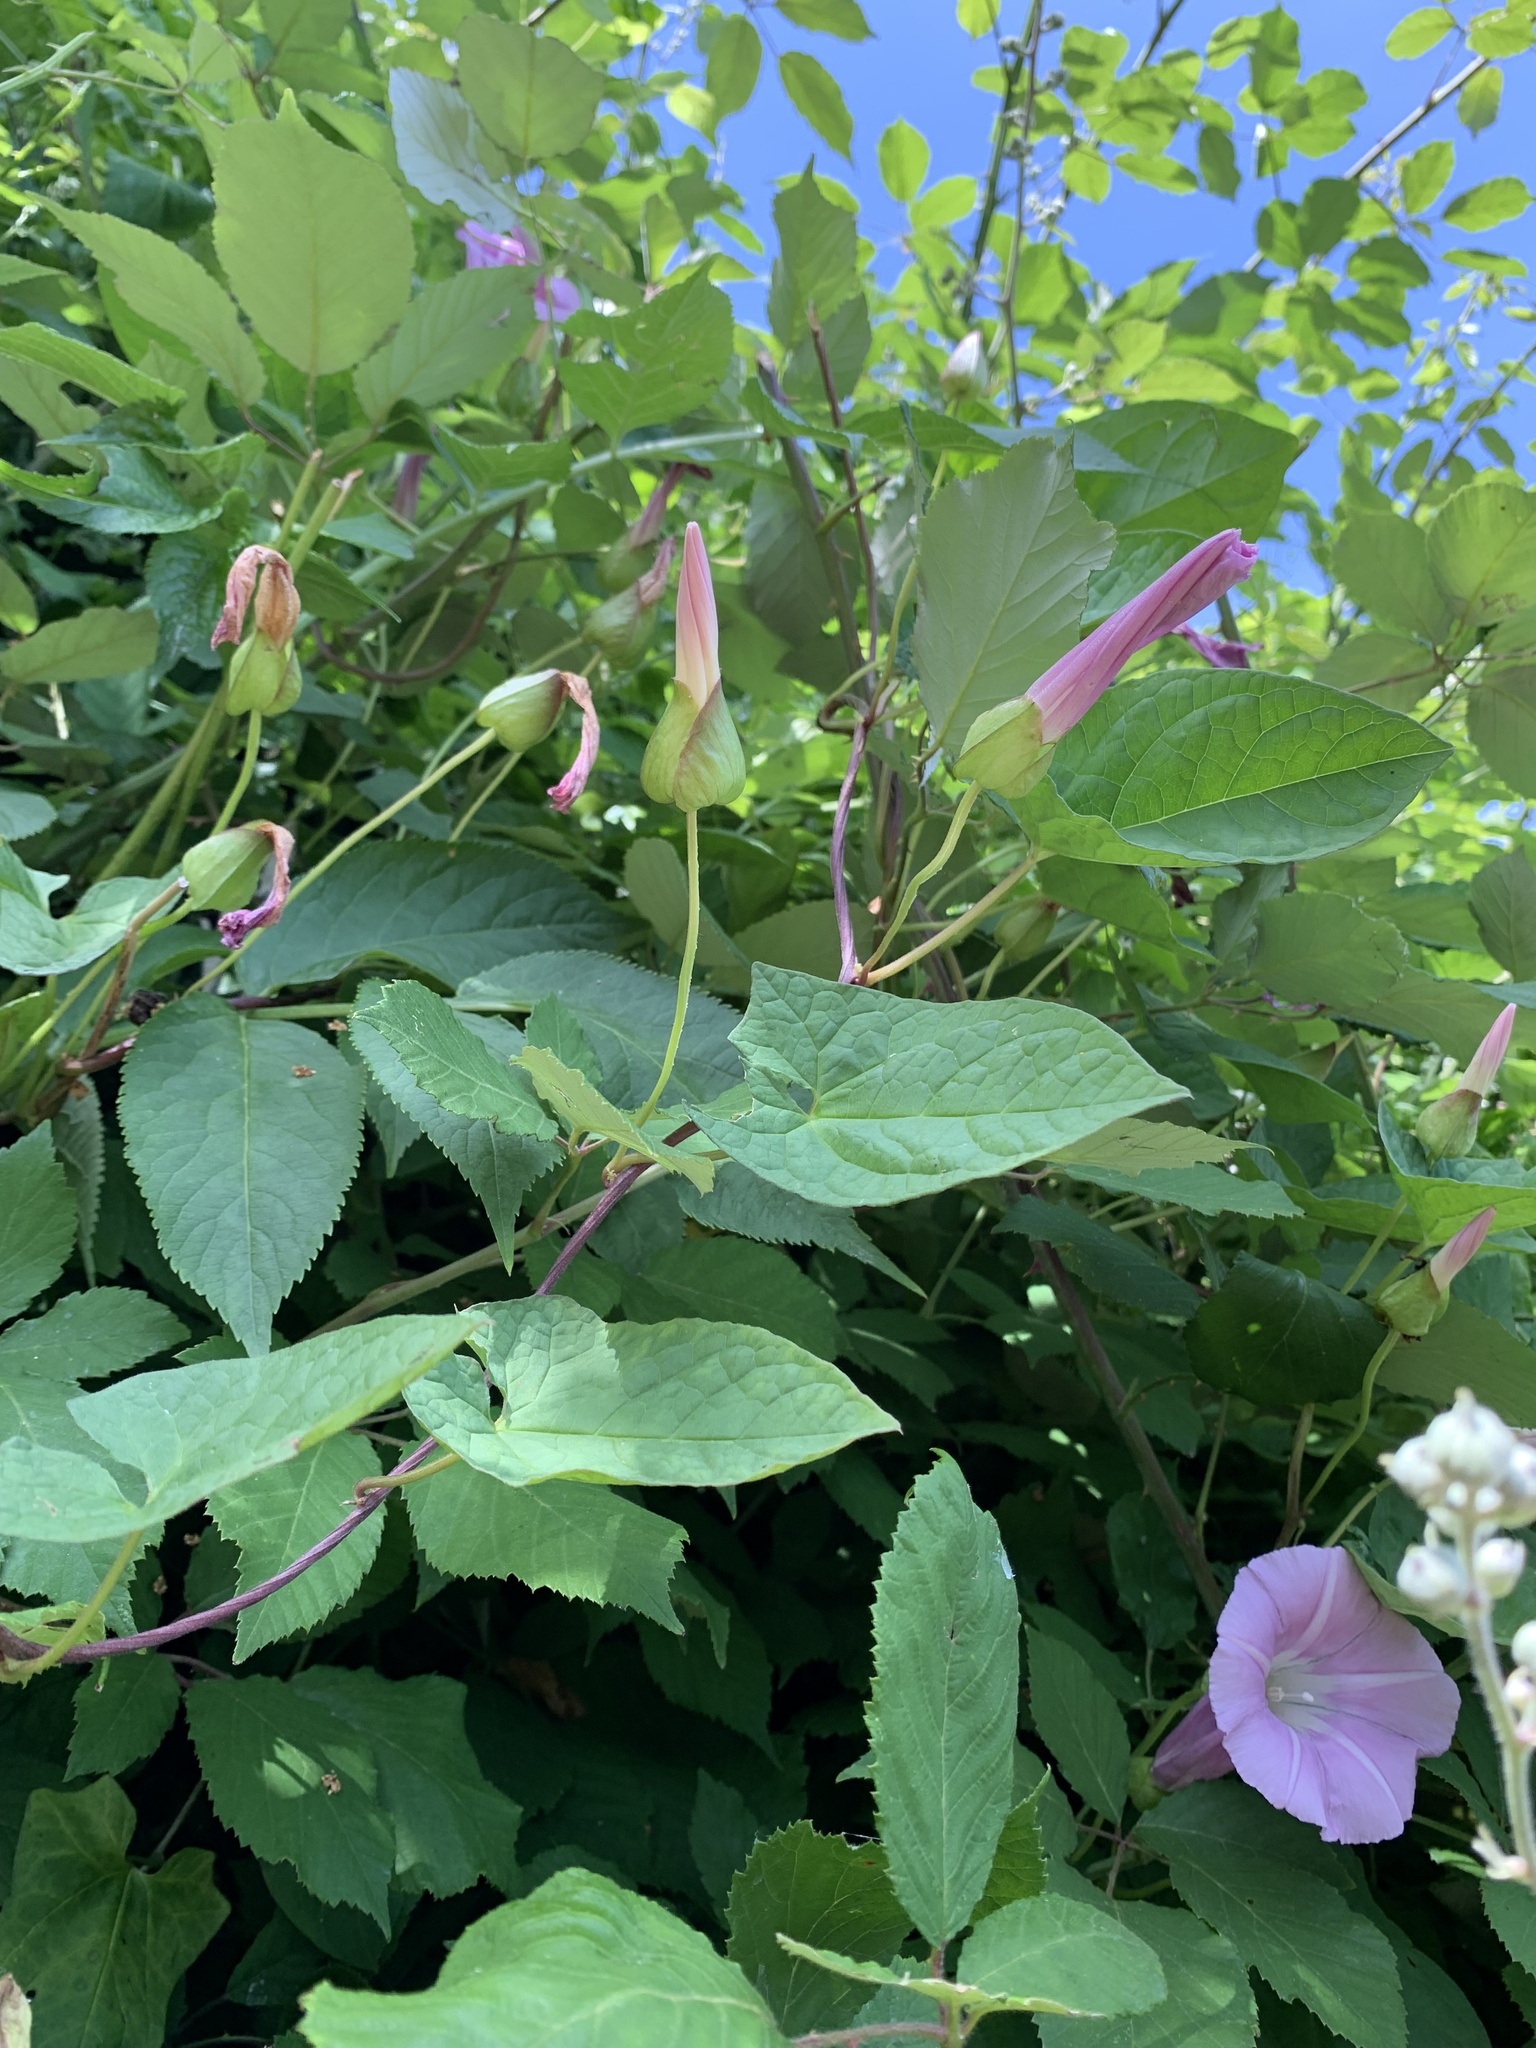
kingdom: Plantae
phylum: Tracheophyta
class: Magnoliopsida
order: Solanales
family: Convolvulaceae
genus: Calystegia
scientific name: Calystegia sepium
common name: Hedge bindweed
